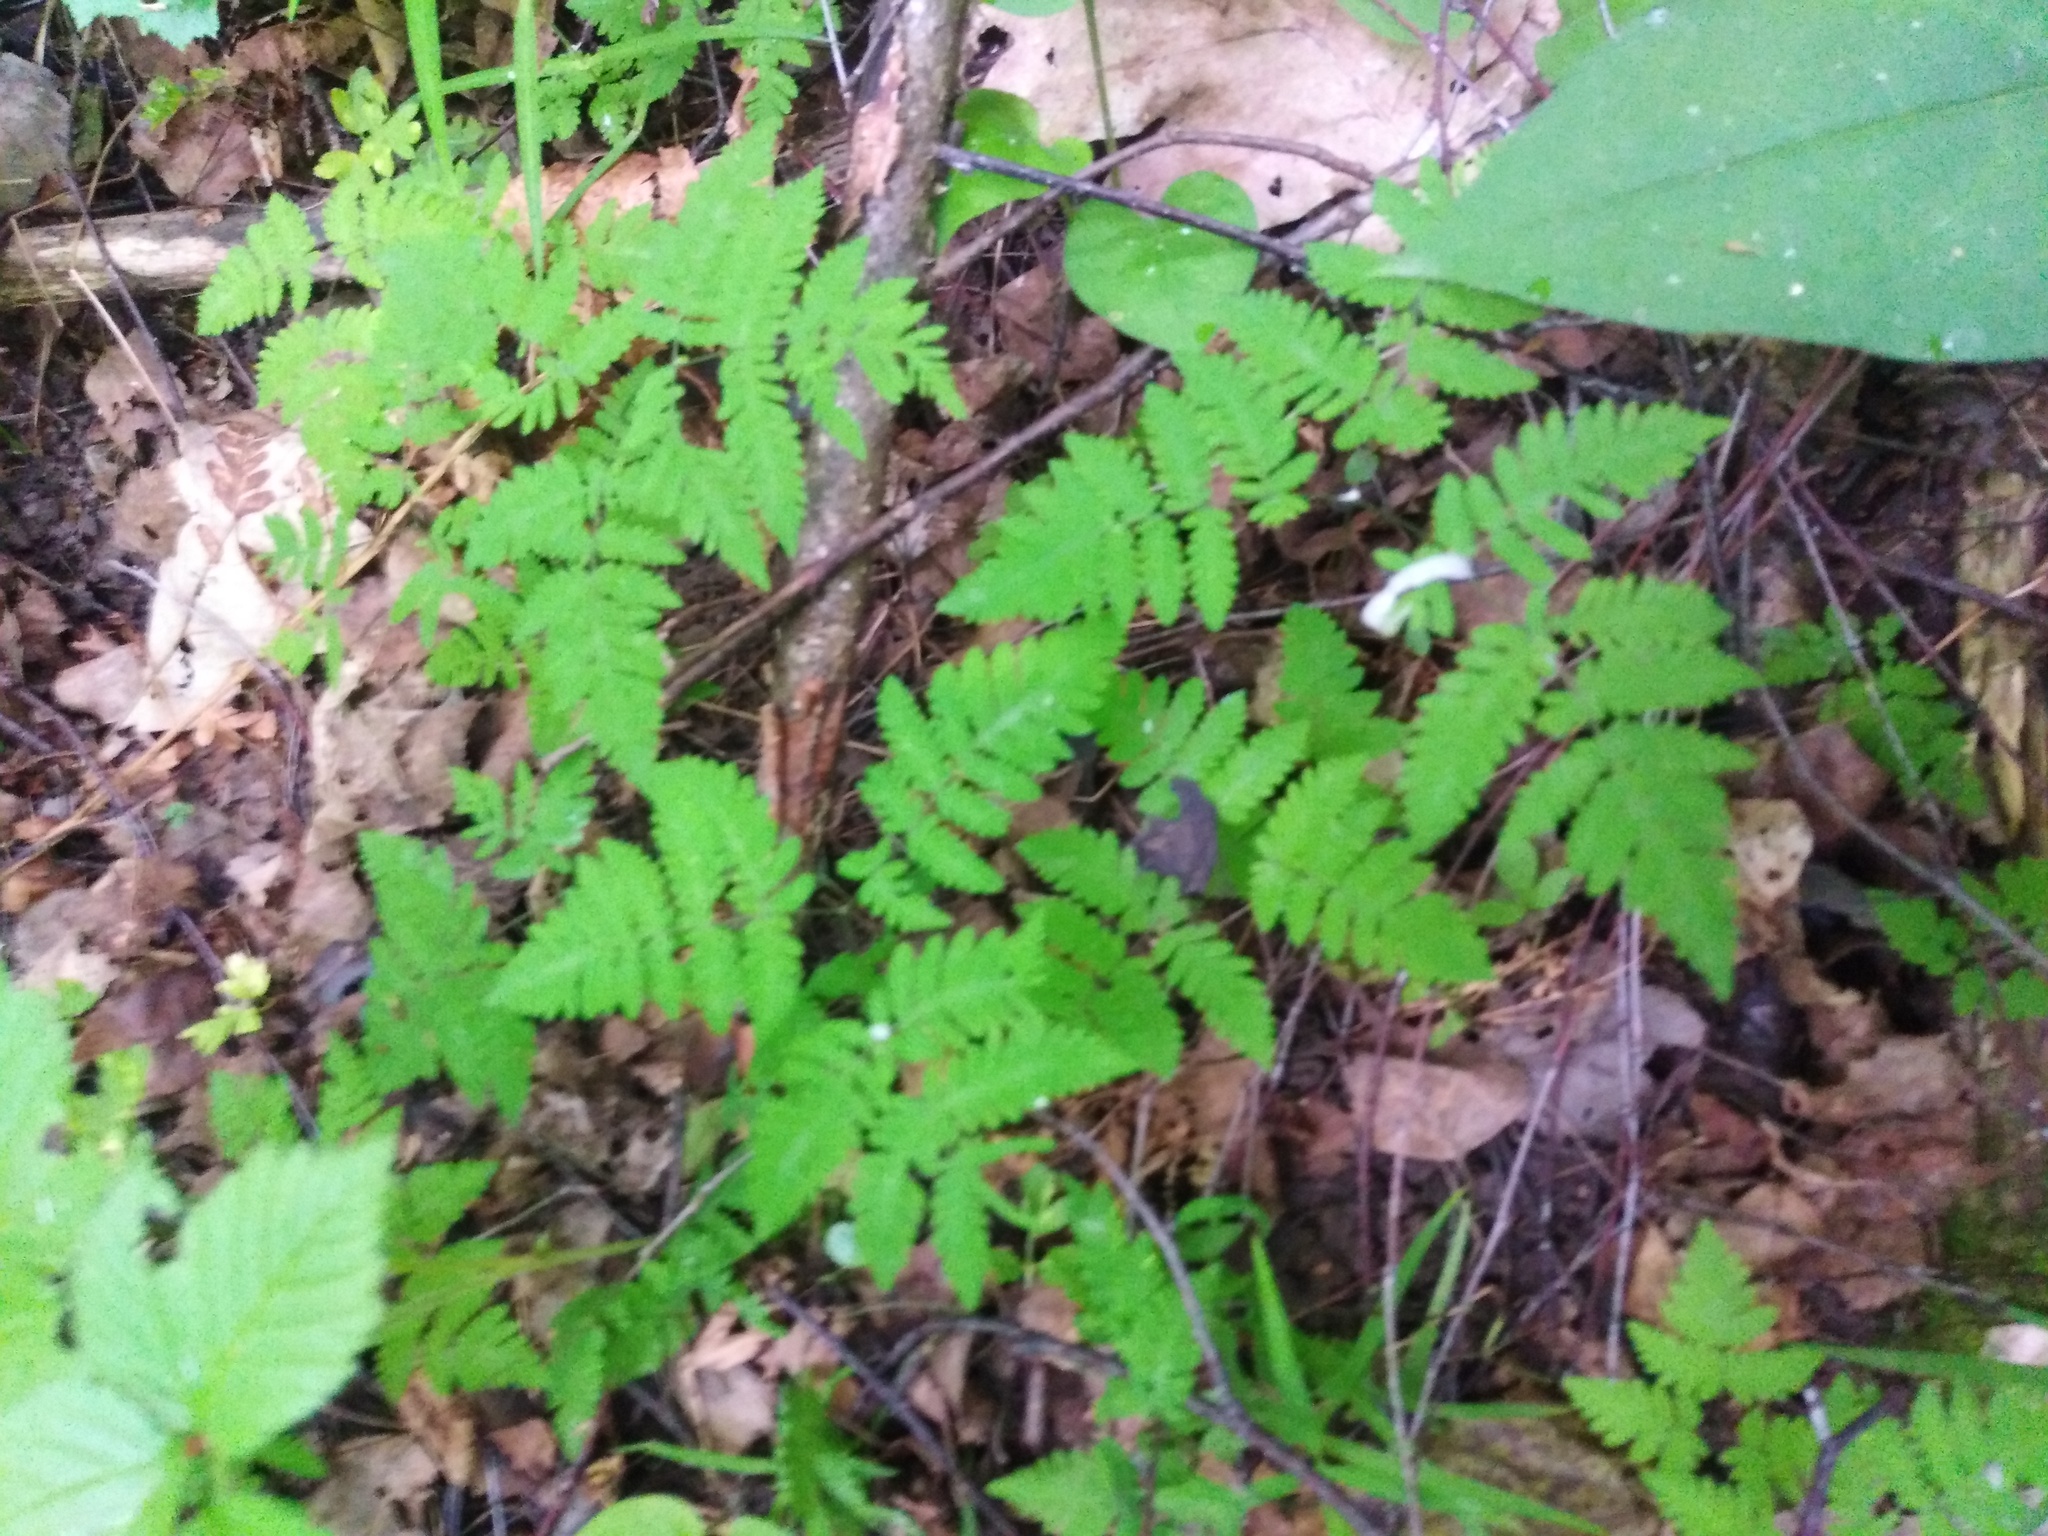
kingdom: Plantae
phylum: Tracheophyta
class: Polypodiopsida
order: Polypodiales
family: Cystopteridaceae
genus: Gymnocarpium
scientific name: Gymnocarpium dryopteris
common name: Oak fern
